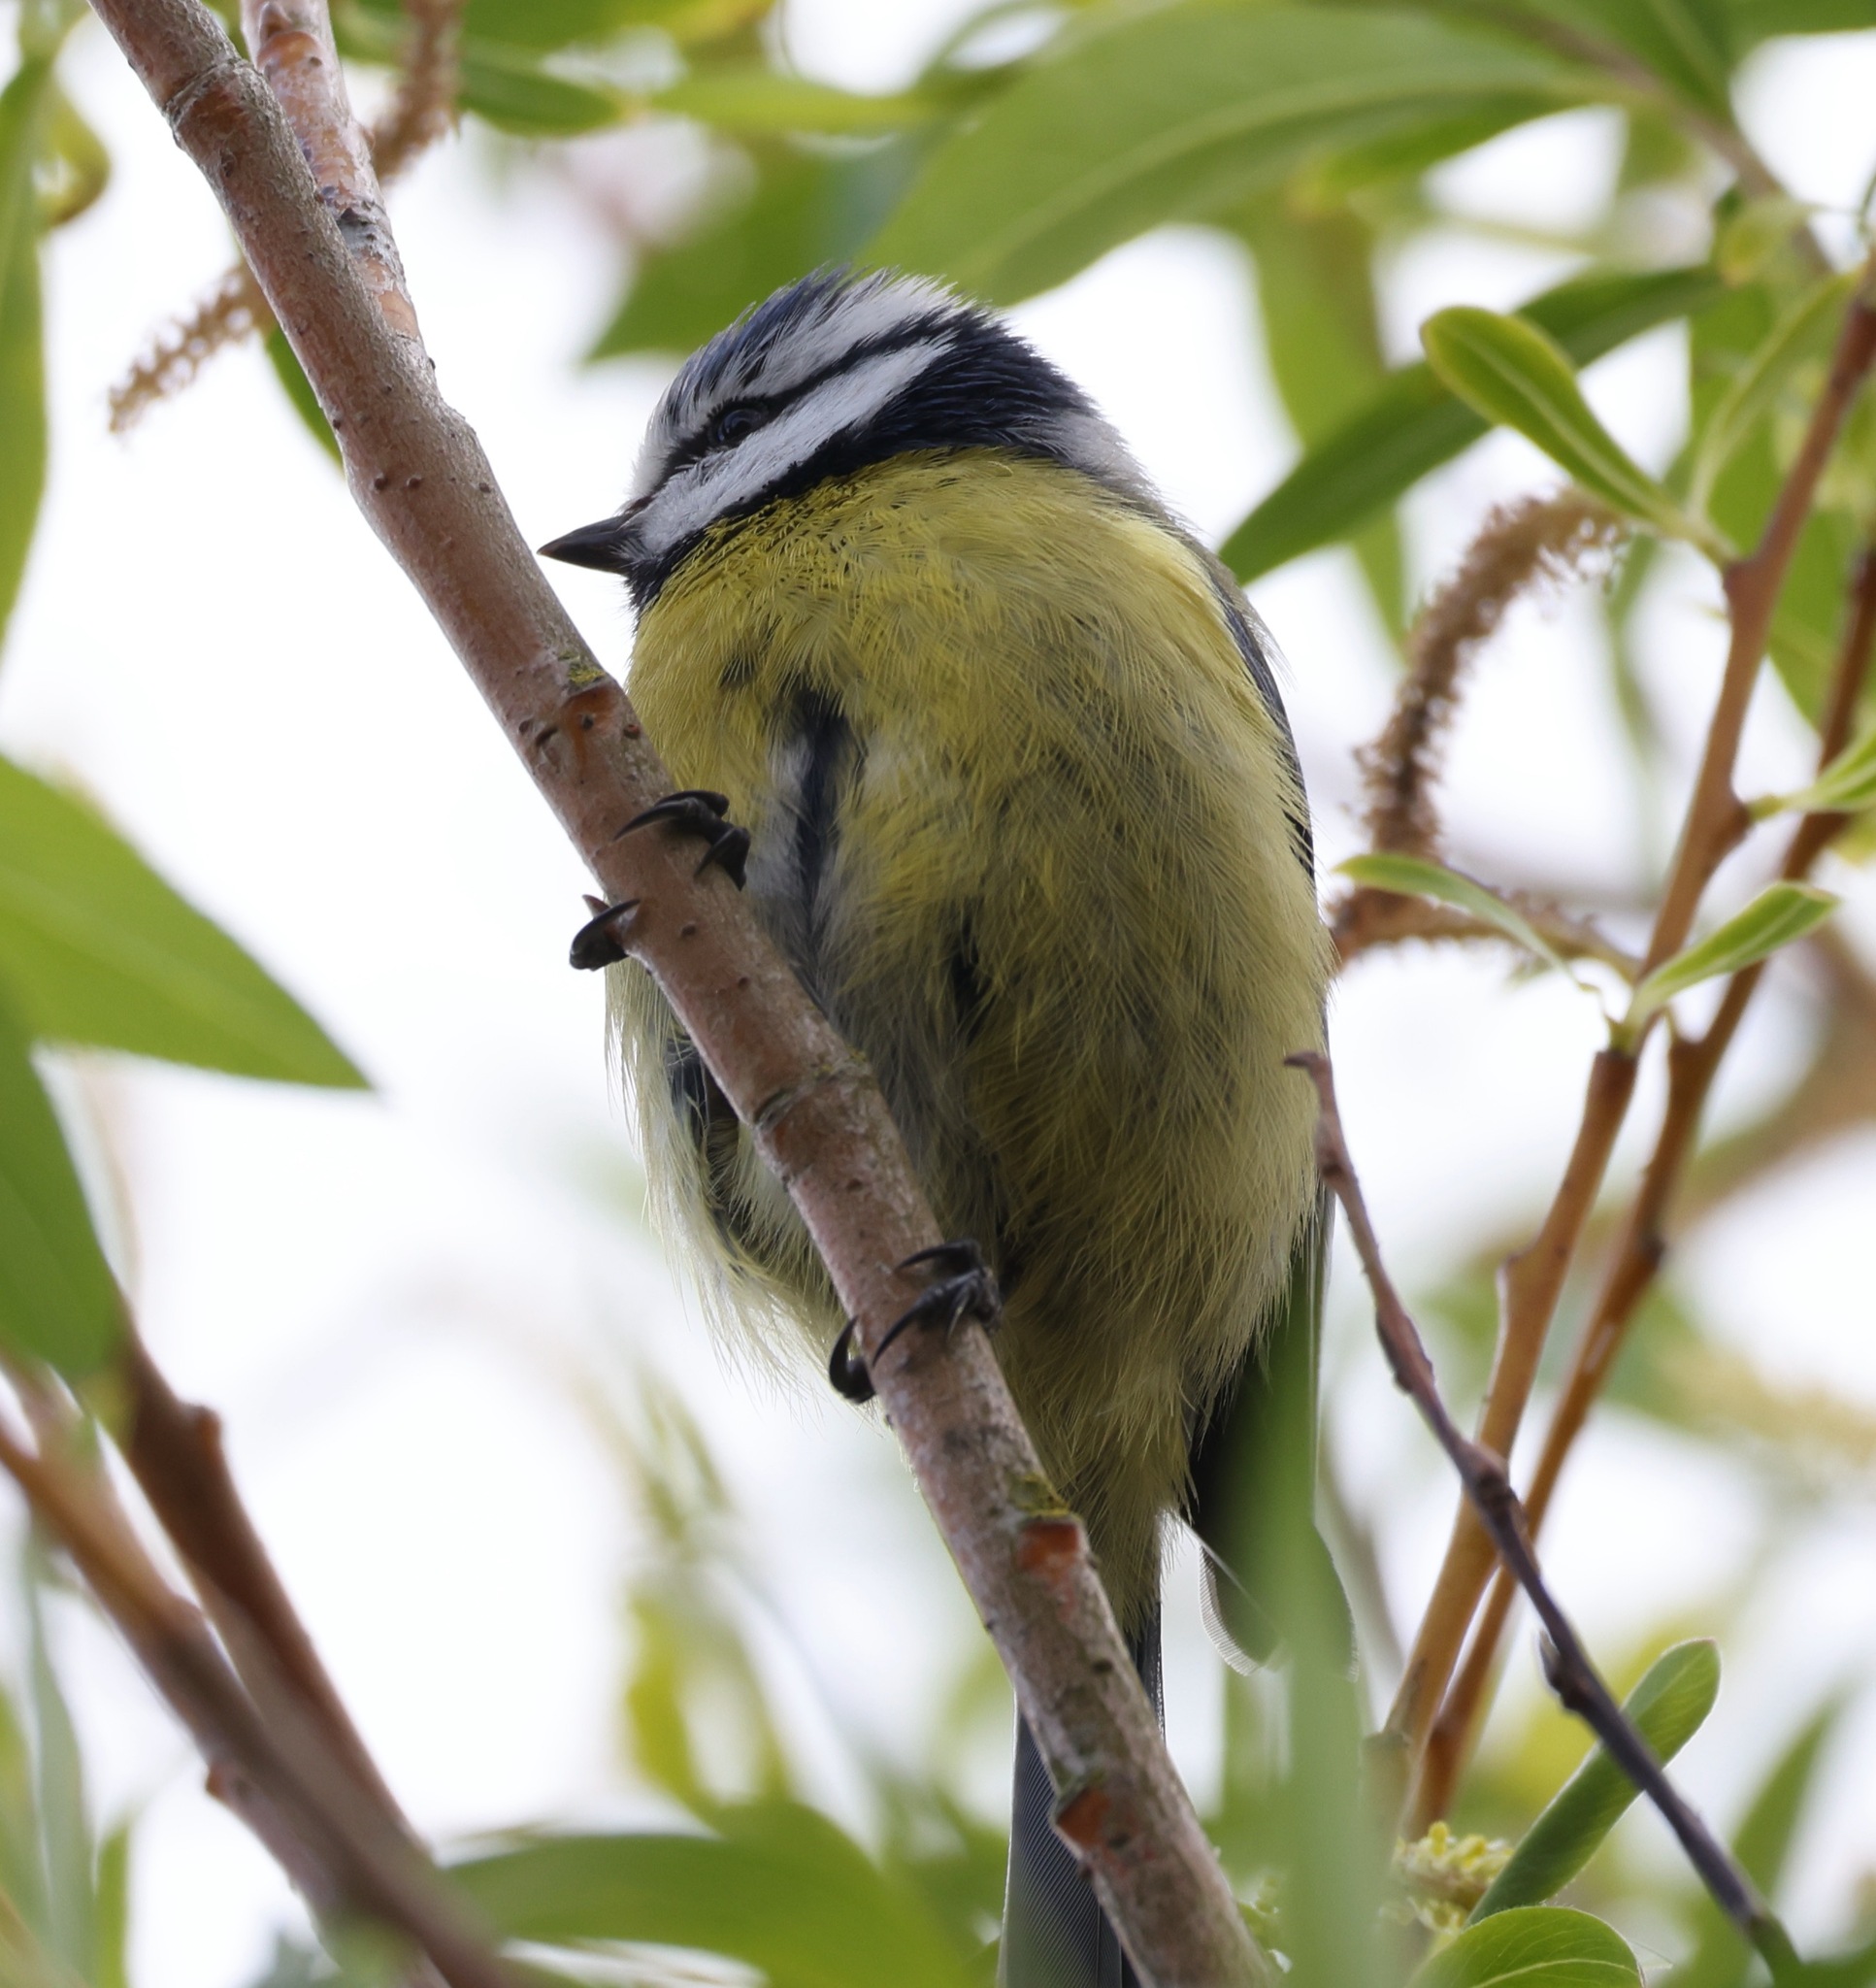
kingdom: Animalia
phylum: Chordata
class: Aves
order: Passeriformes
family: Paridae
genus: Cyanistes
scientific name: Cyanistes caeruleus
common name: Eurasian blue tit
